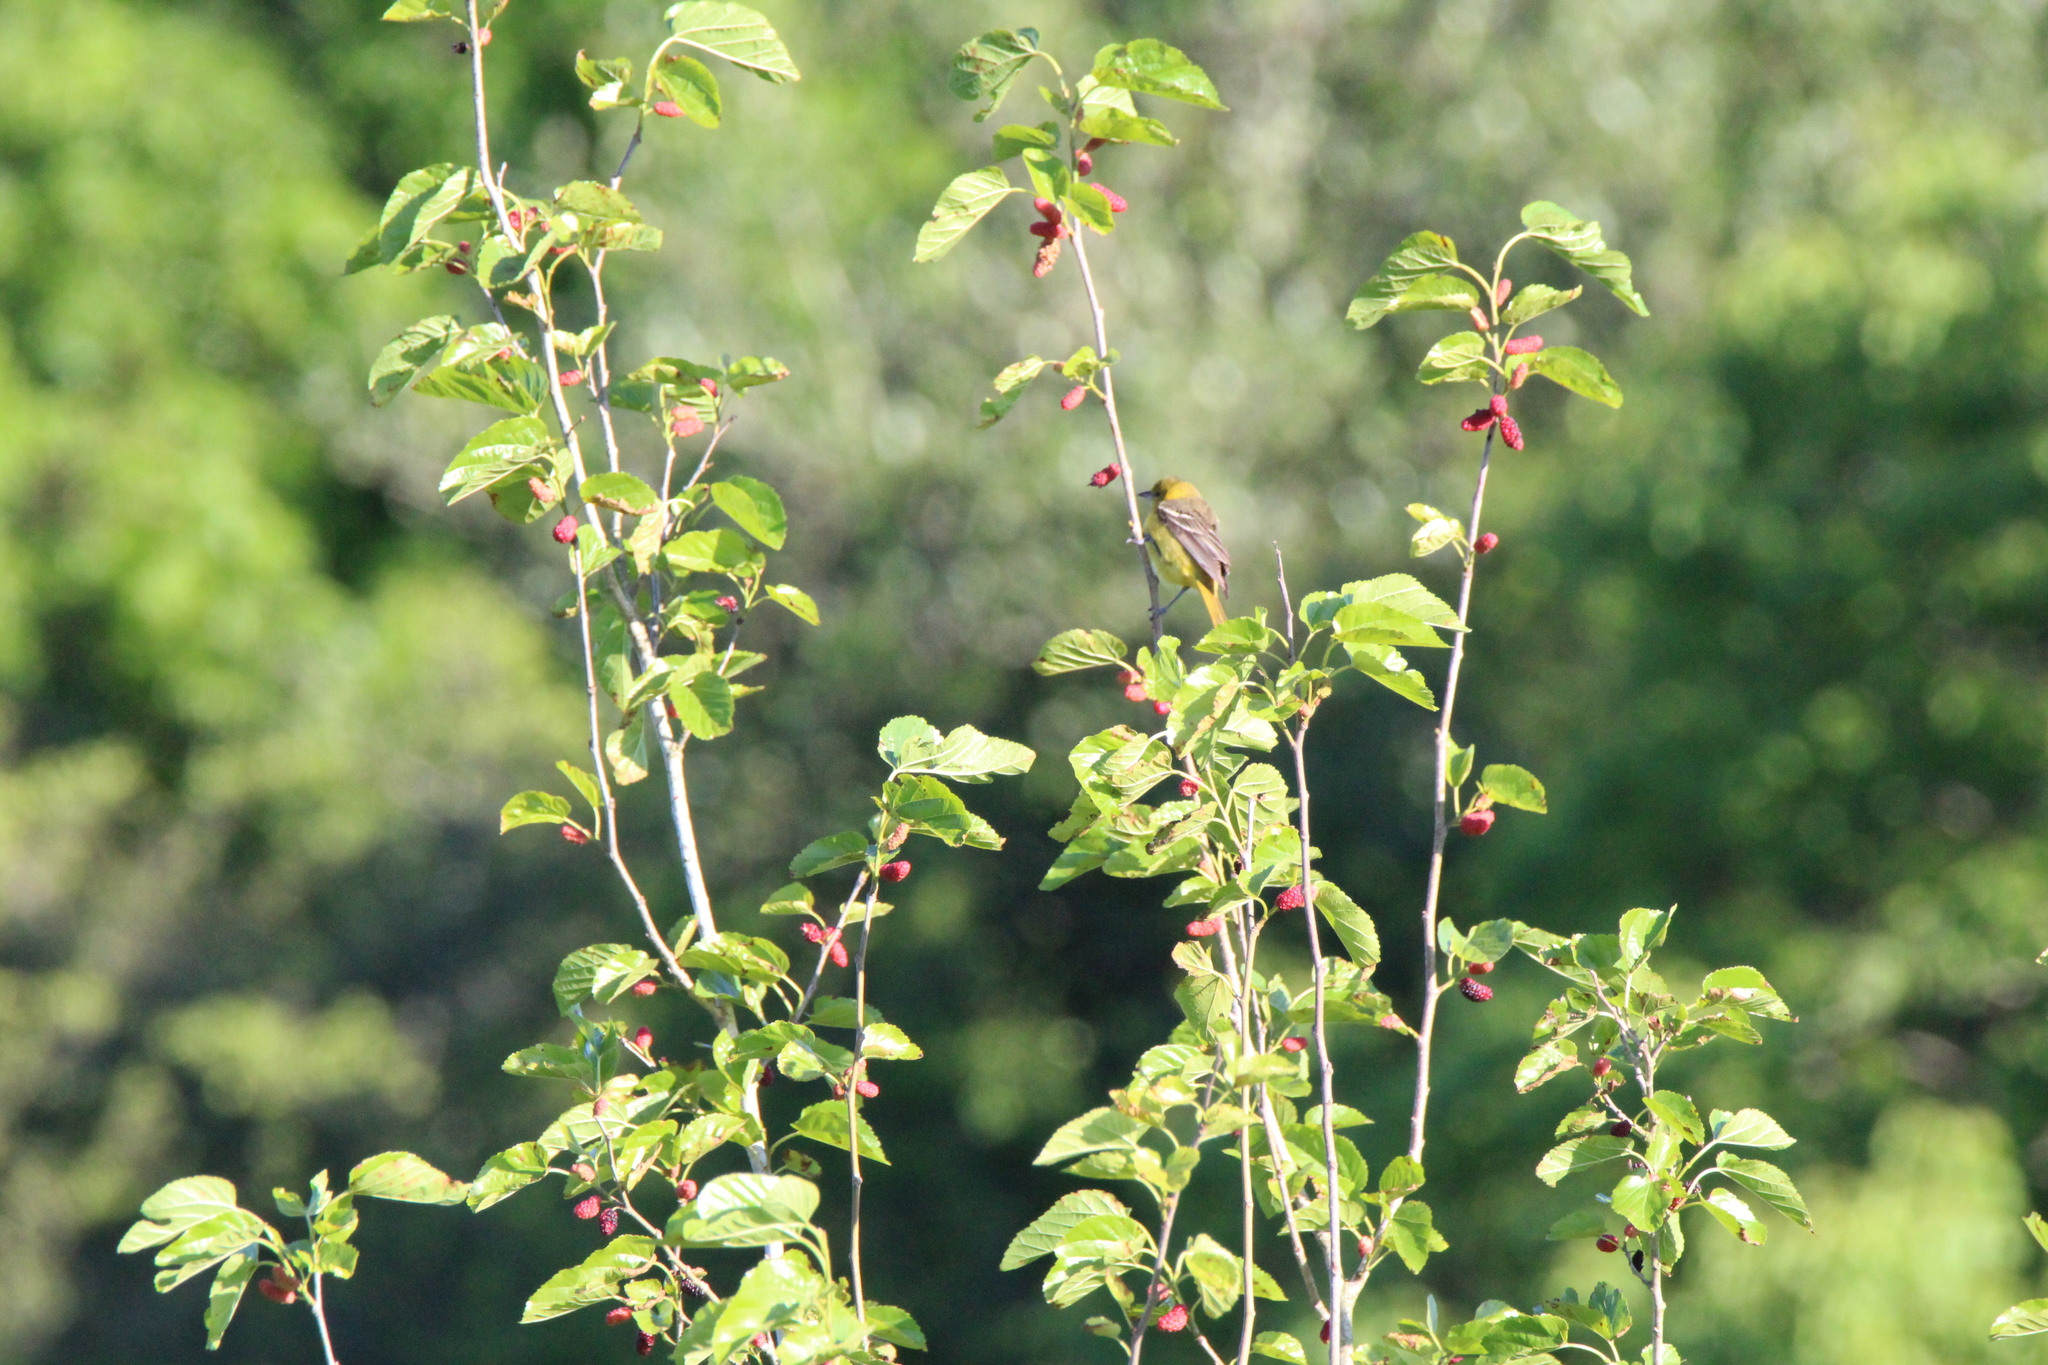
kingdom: Animalia
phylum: Chordata
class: Aves
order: Passeriformes
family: Icteridae
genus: Icterus
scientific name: Icterus spurius
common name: Orchard oriole
